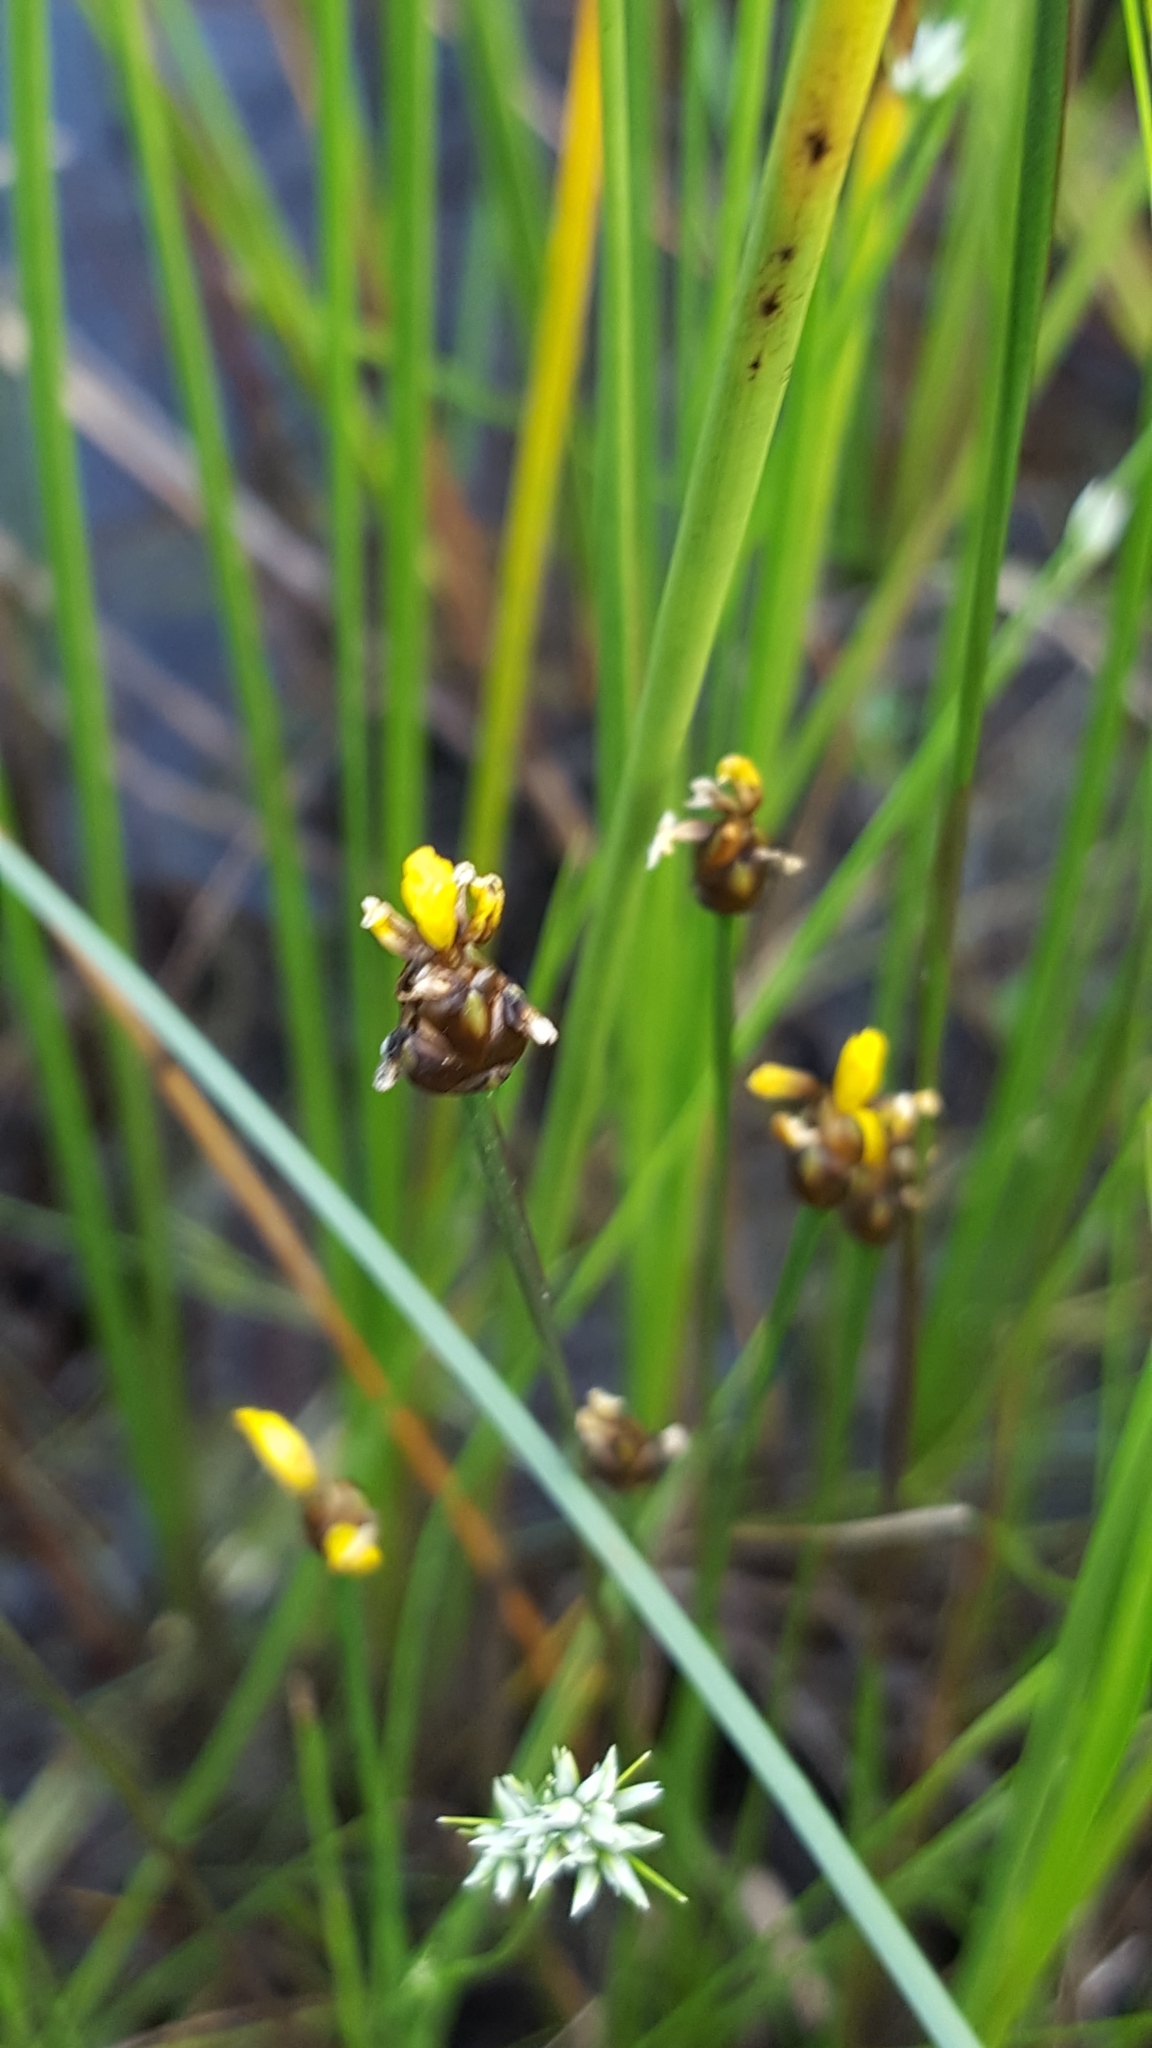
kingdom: Plantae
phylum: Tracheophyta
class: Liliopsida
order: Poales
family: Xyridaceae
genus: Xyris
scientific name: Xyris montana
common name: Northern yellow-eyed-grass
